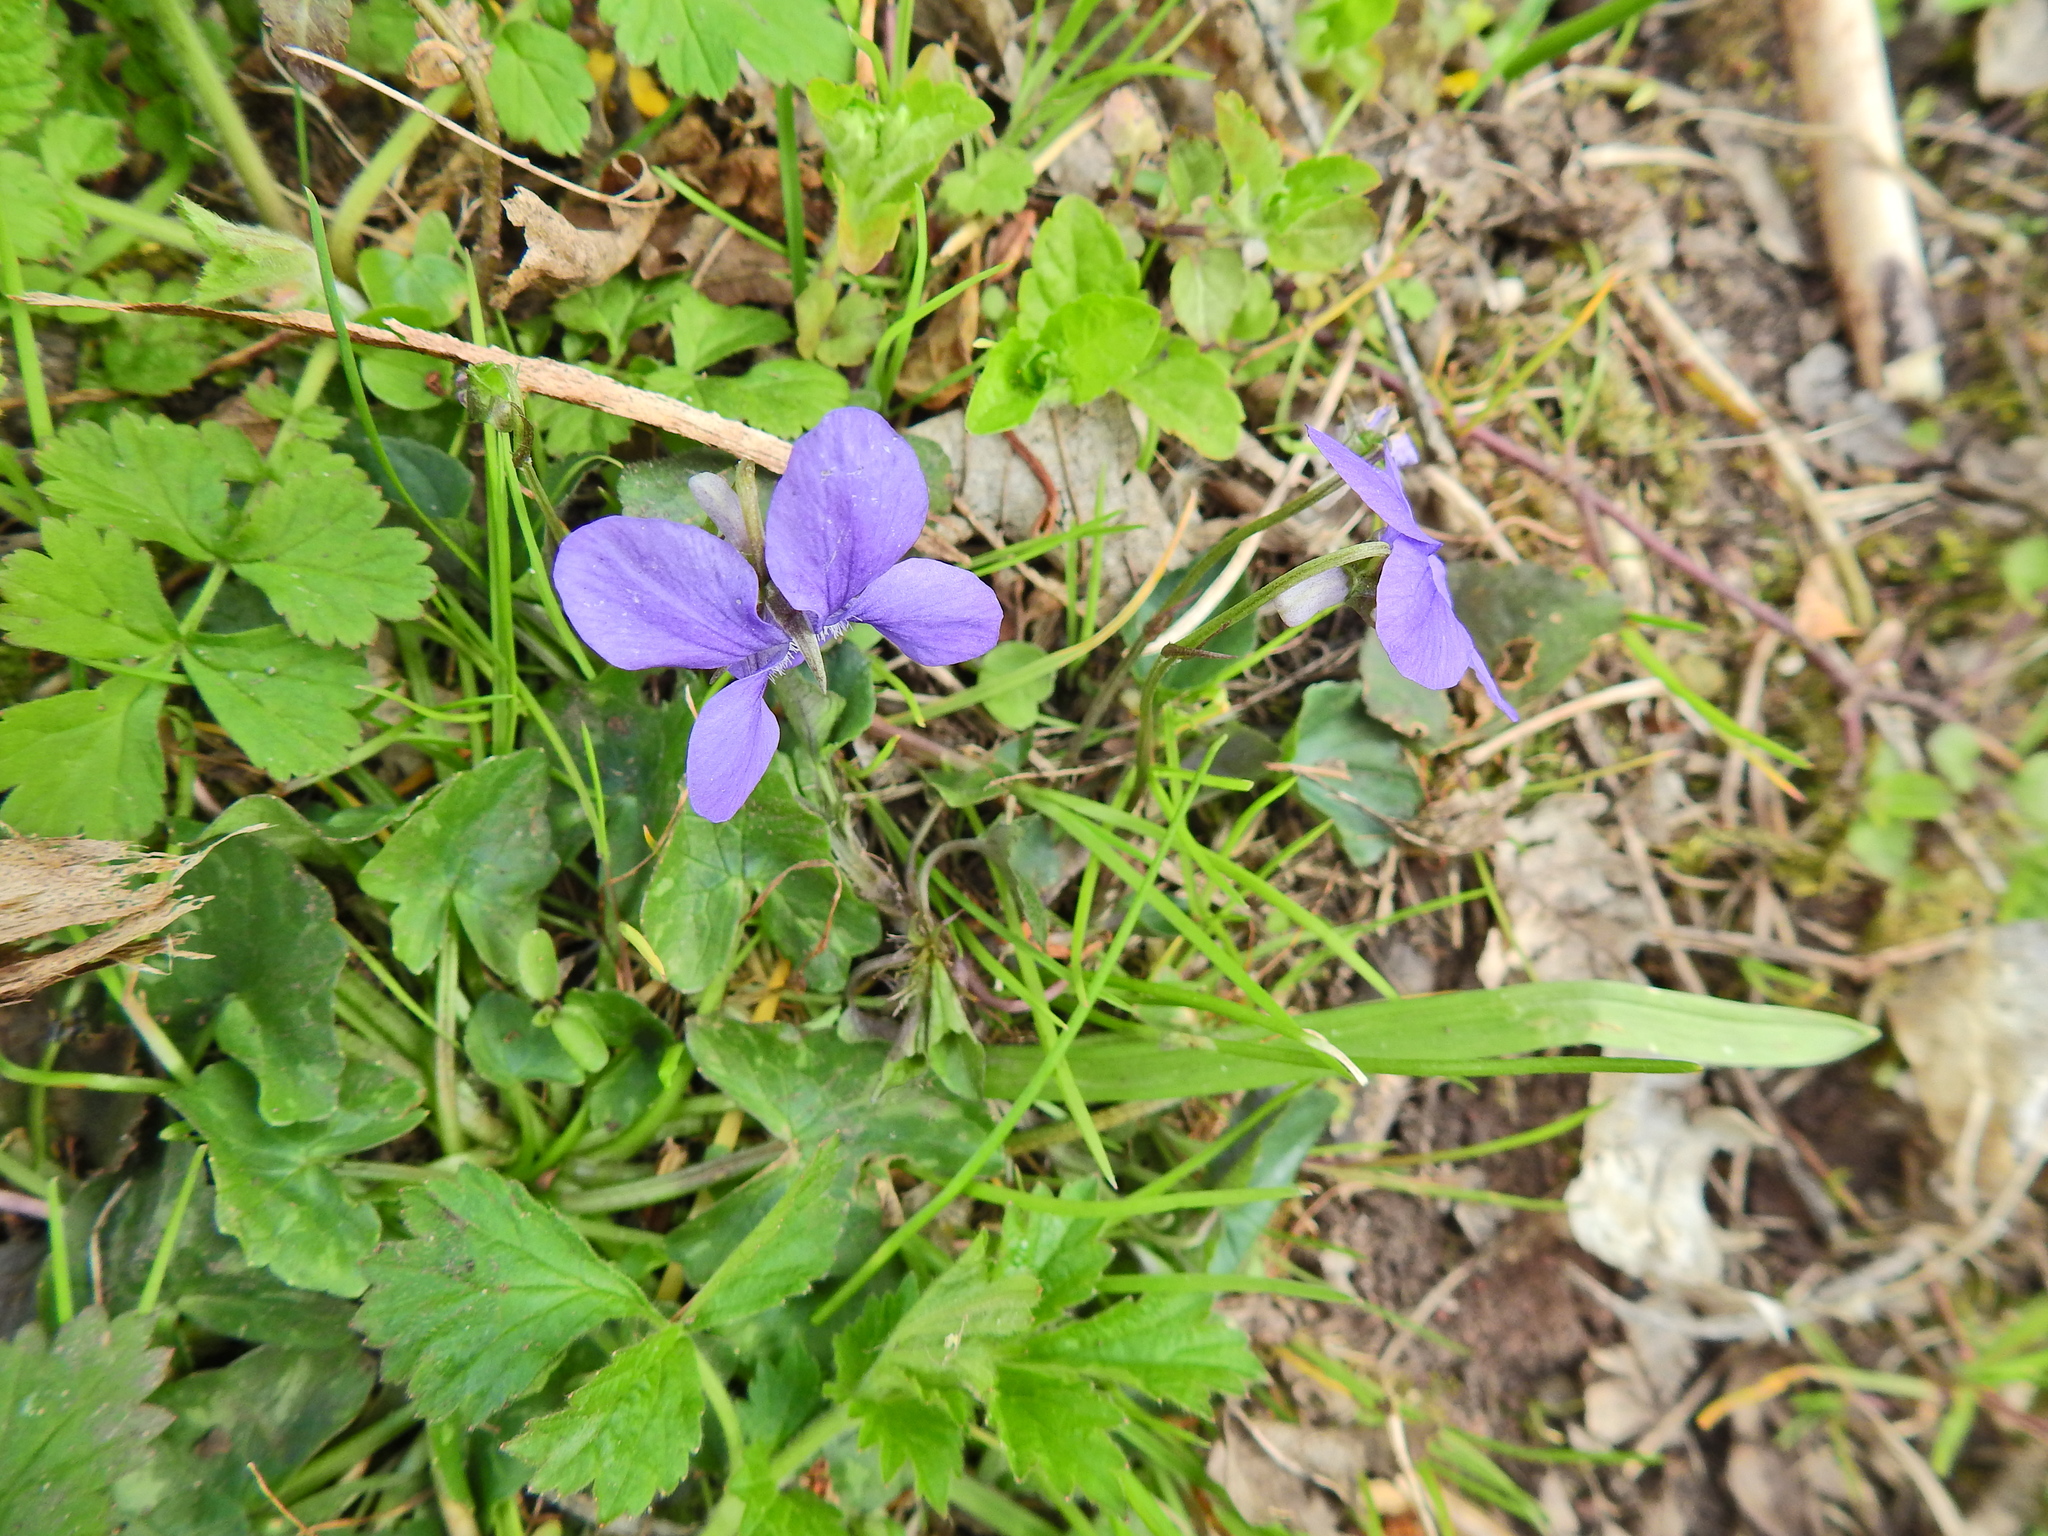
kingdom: Plantae
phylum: Tracheophyta
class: Magnoliopsida
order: Malpighiales
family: Violaceae
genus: Viola
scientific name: Viola reichenbachiana
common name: Early dog-violet
